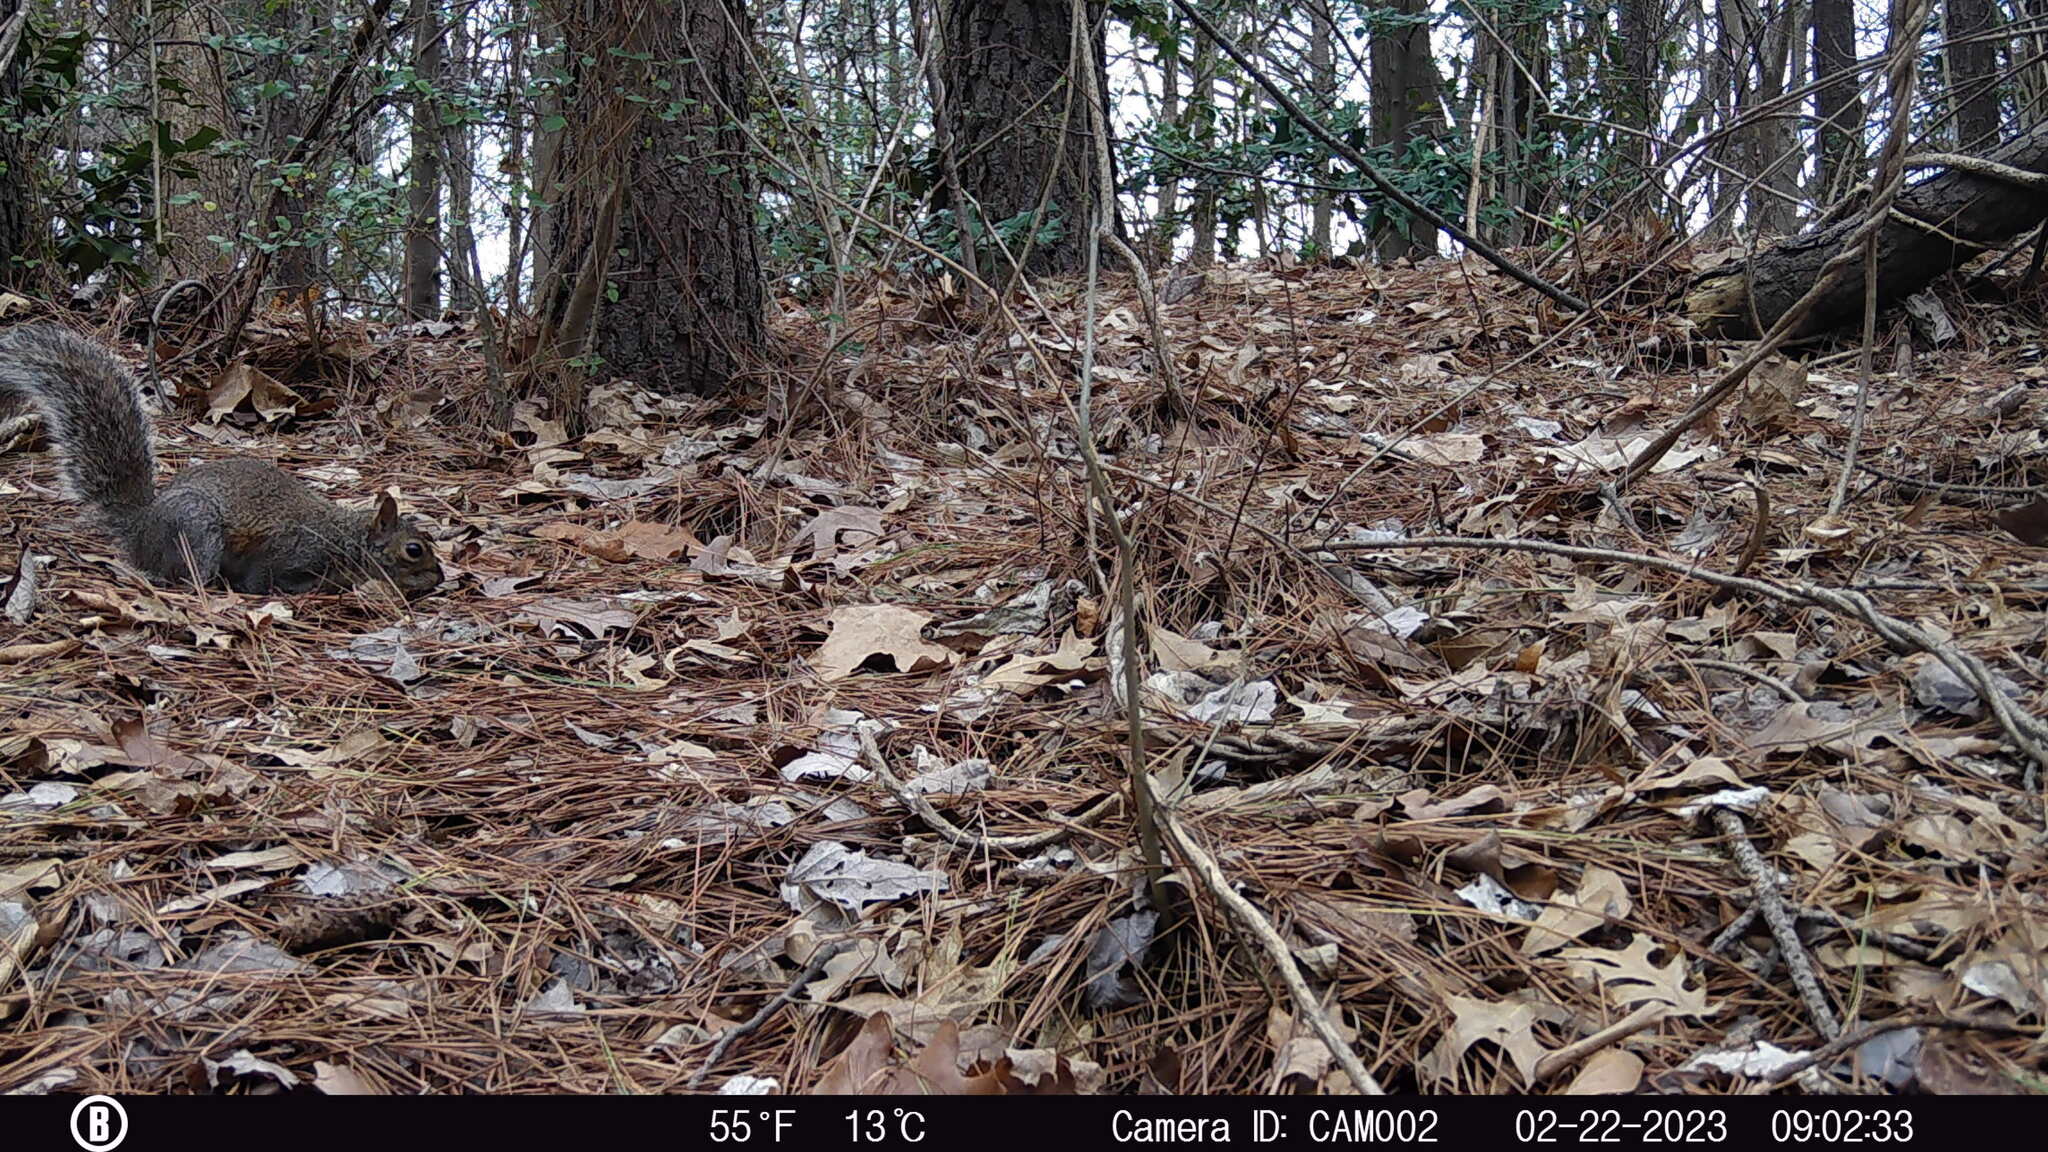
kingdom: Animalia
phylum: Chordata
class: Mammalia
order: Rodentia
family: Sciuridae
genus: Sciurus
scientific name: Sciurus carolinensis
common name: Eastern gray squirrel
